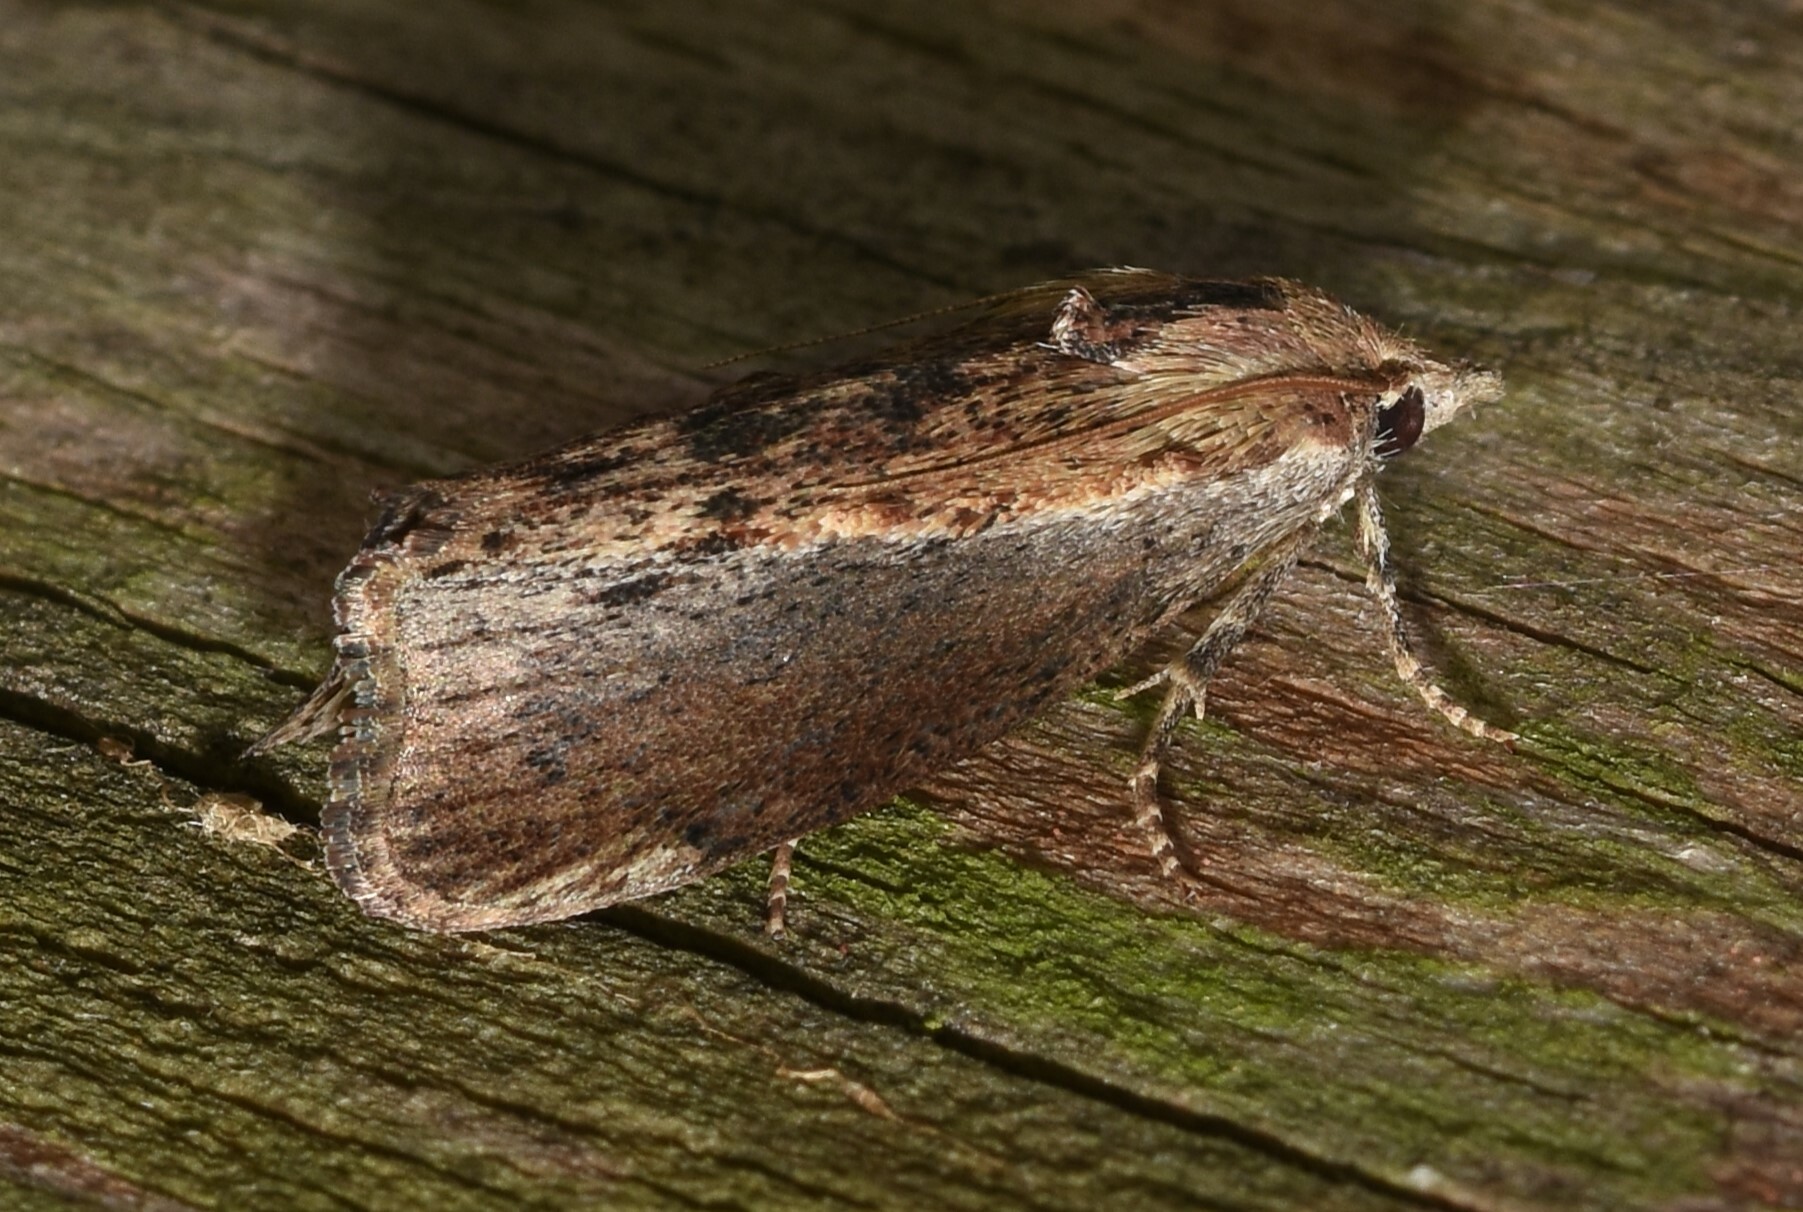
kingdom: Animalia
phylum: Arthropoda
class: Insecta
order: Lepidoptera
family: Pyralidae
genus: Galleria
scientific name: Galleria mellonella
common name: Greater wax moth
